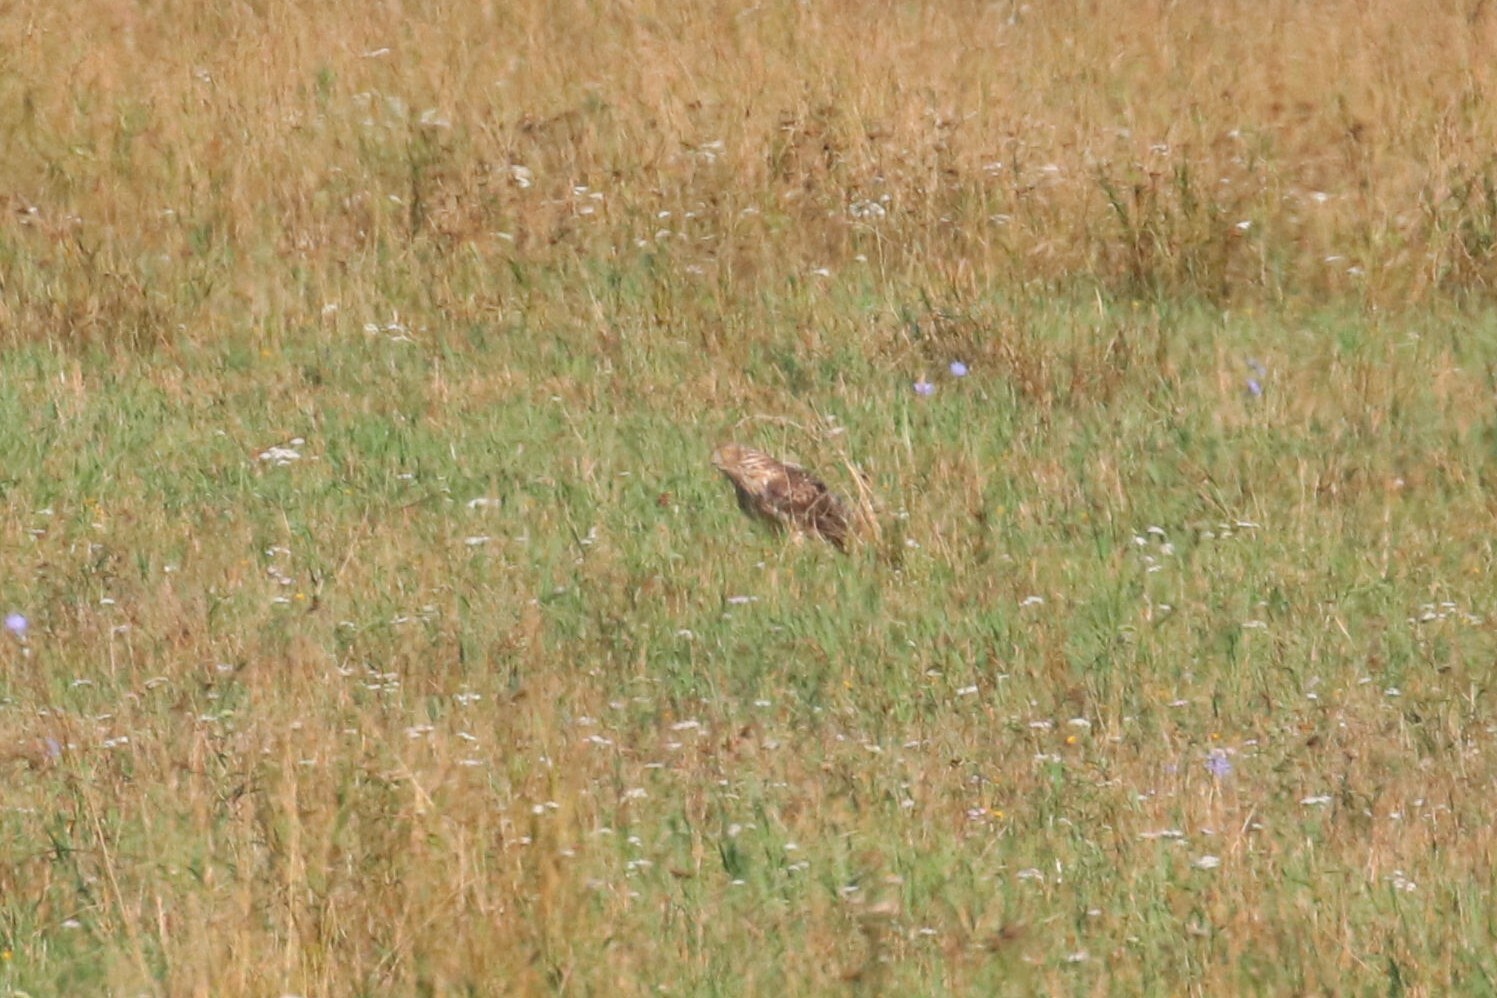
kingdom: Animalia
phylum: Chordata
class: Aves
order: Accipitriformes
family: Accipitridae
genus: Circus
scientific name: Circus cyaneus
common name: Hen harrier
